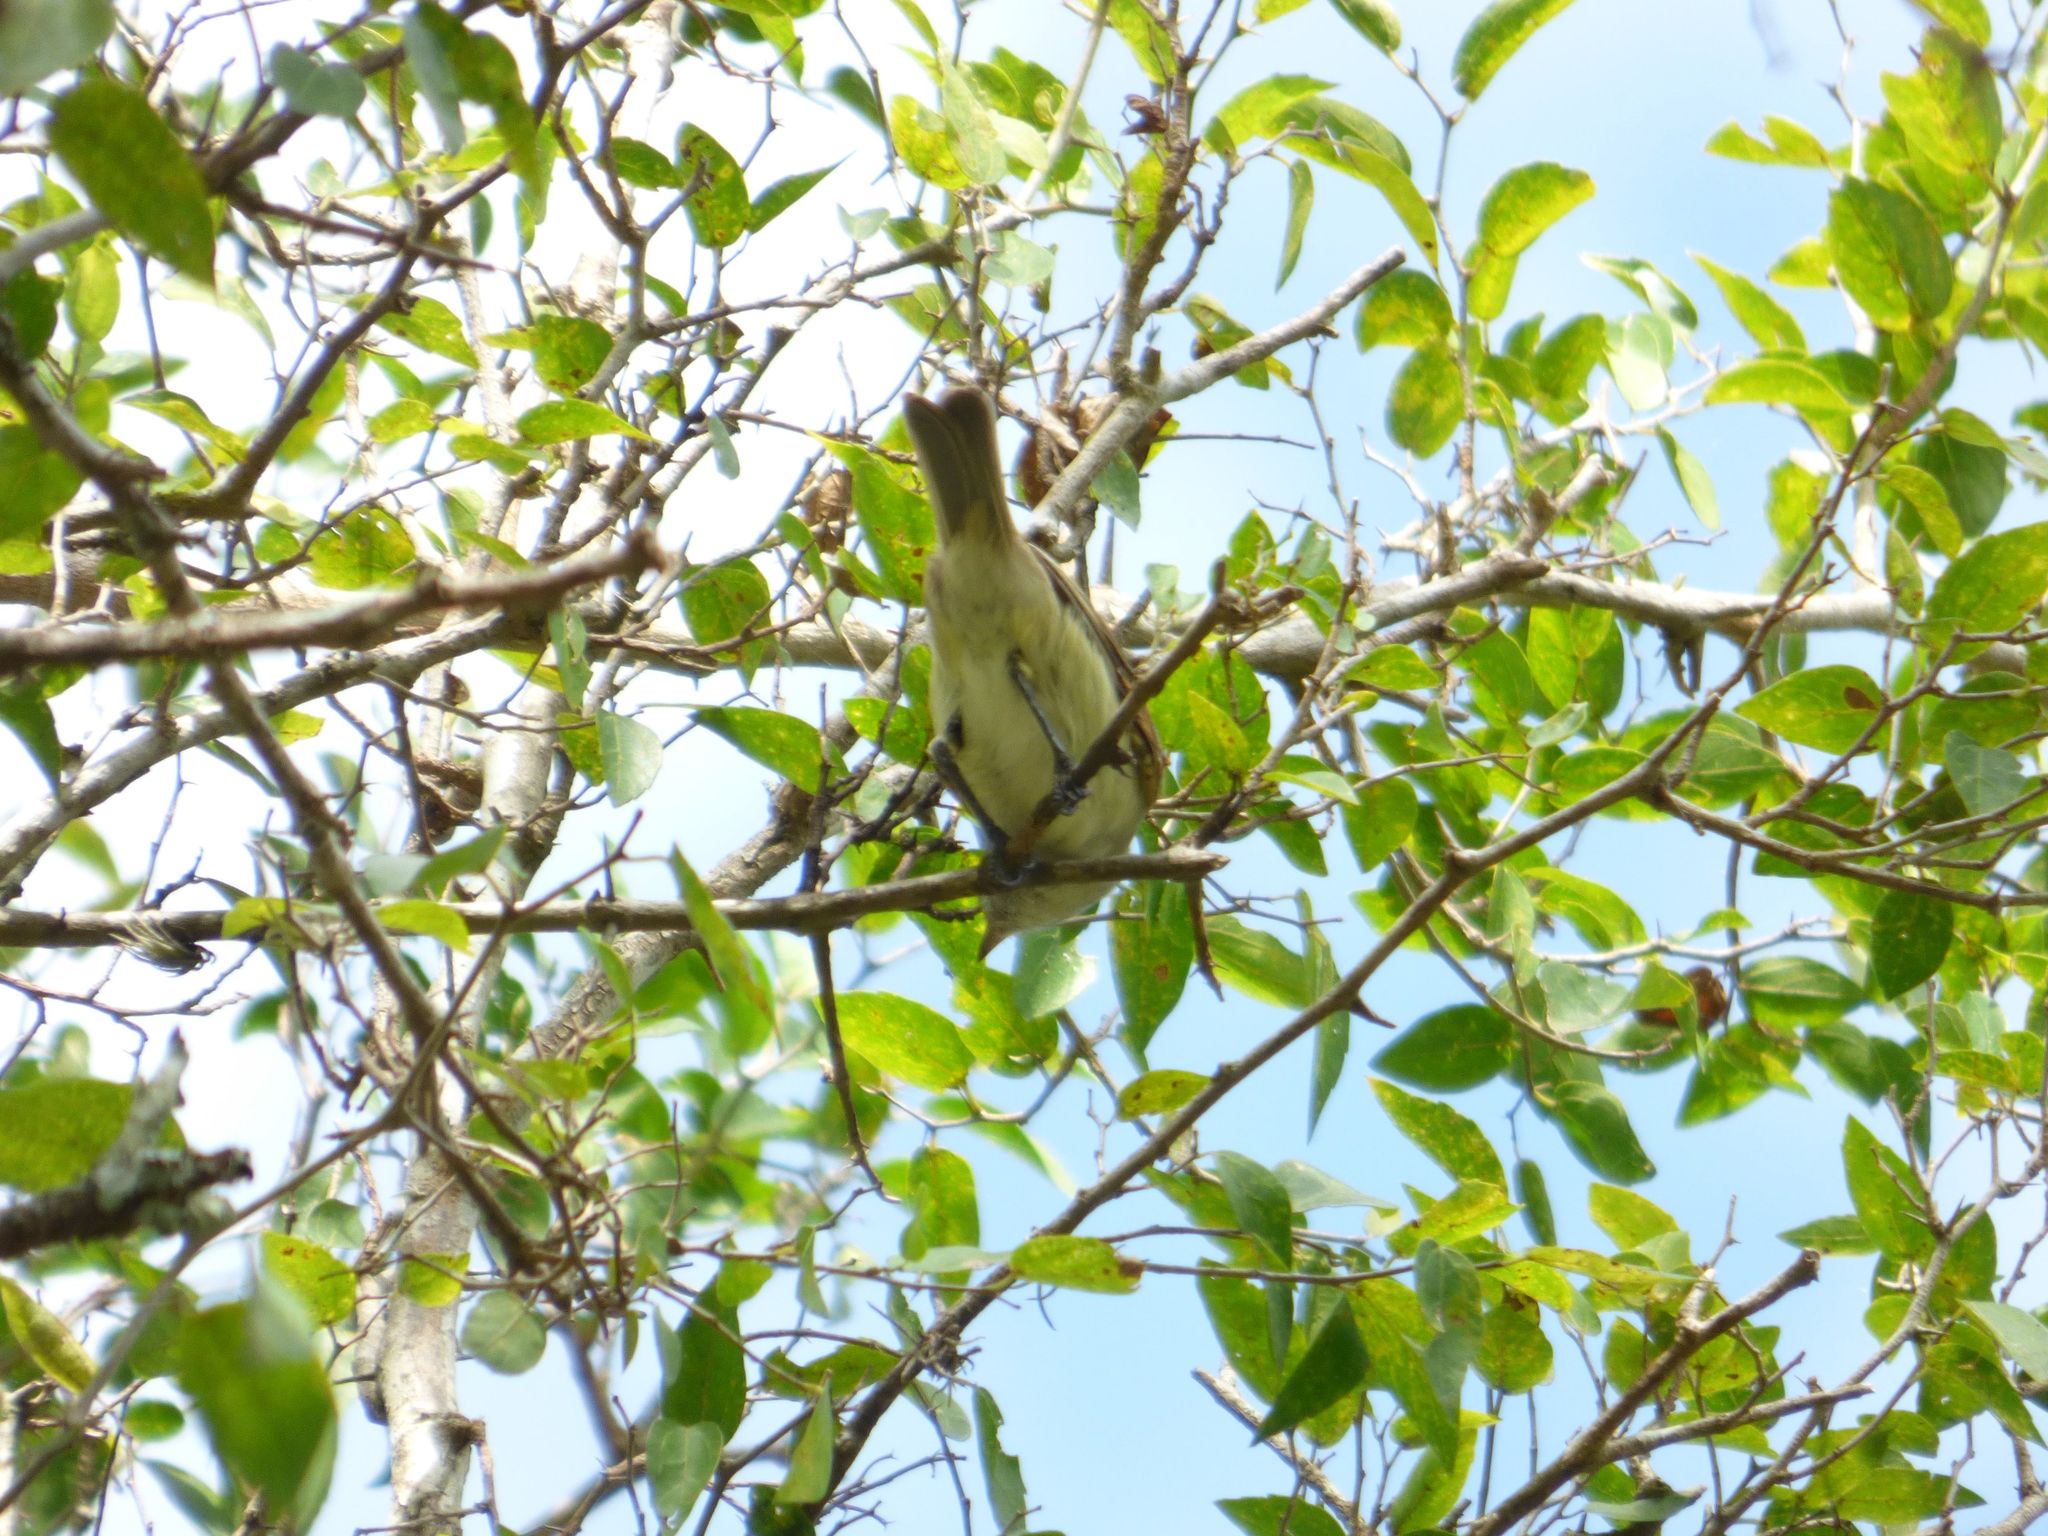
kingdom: Animalia
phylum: Chordata
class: Aves
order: Passeriformes
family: Tyrannidae
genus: Camptostoma
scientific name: Camptostoma obsoletum
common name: Southern beardless-tyrannulet
